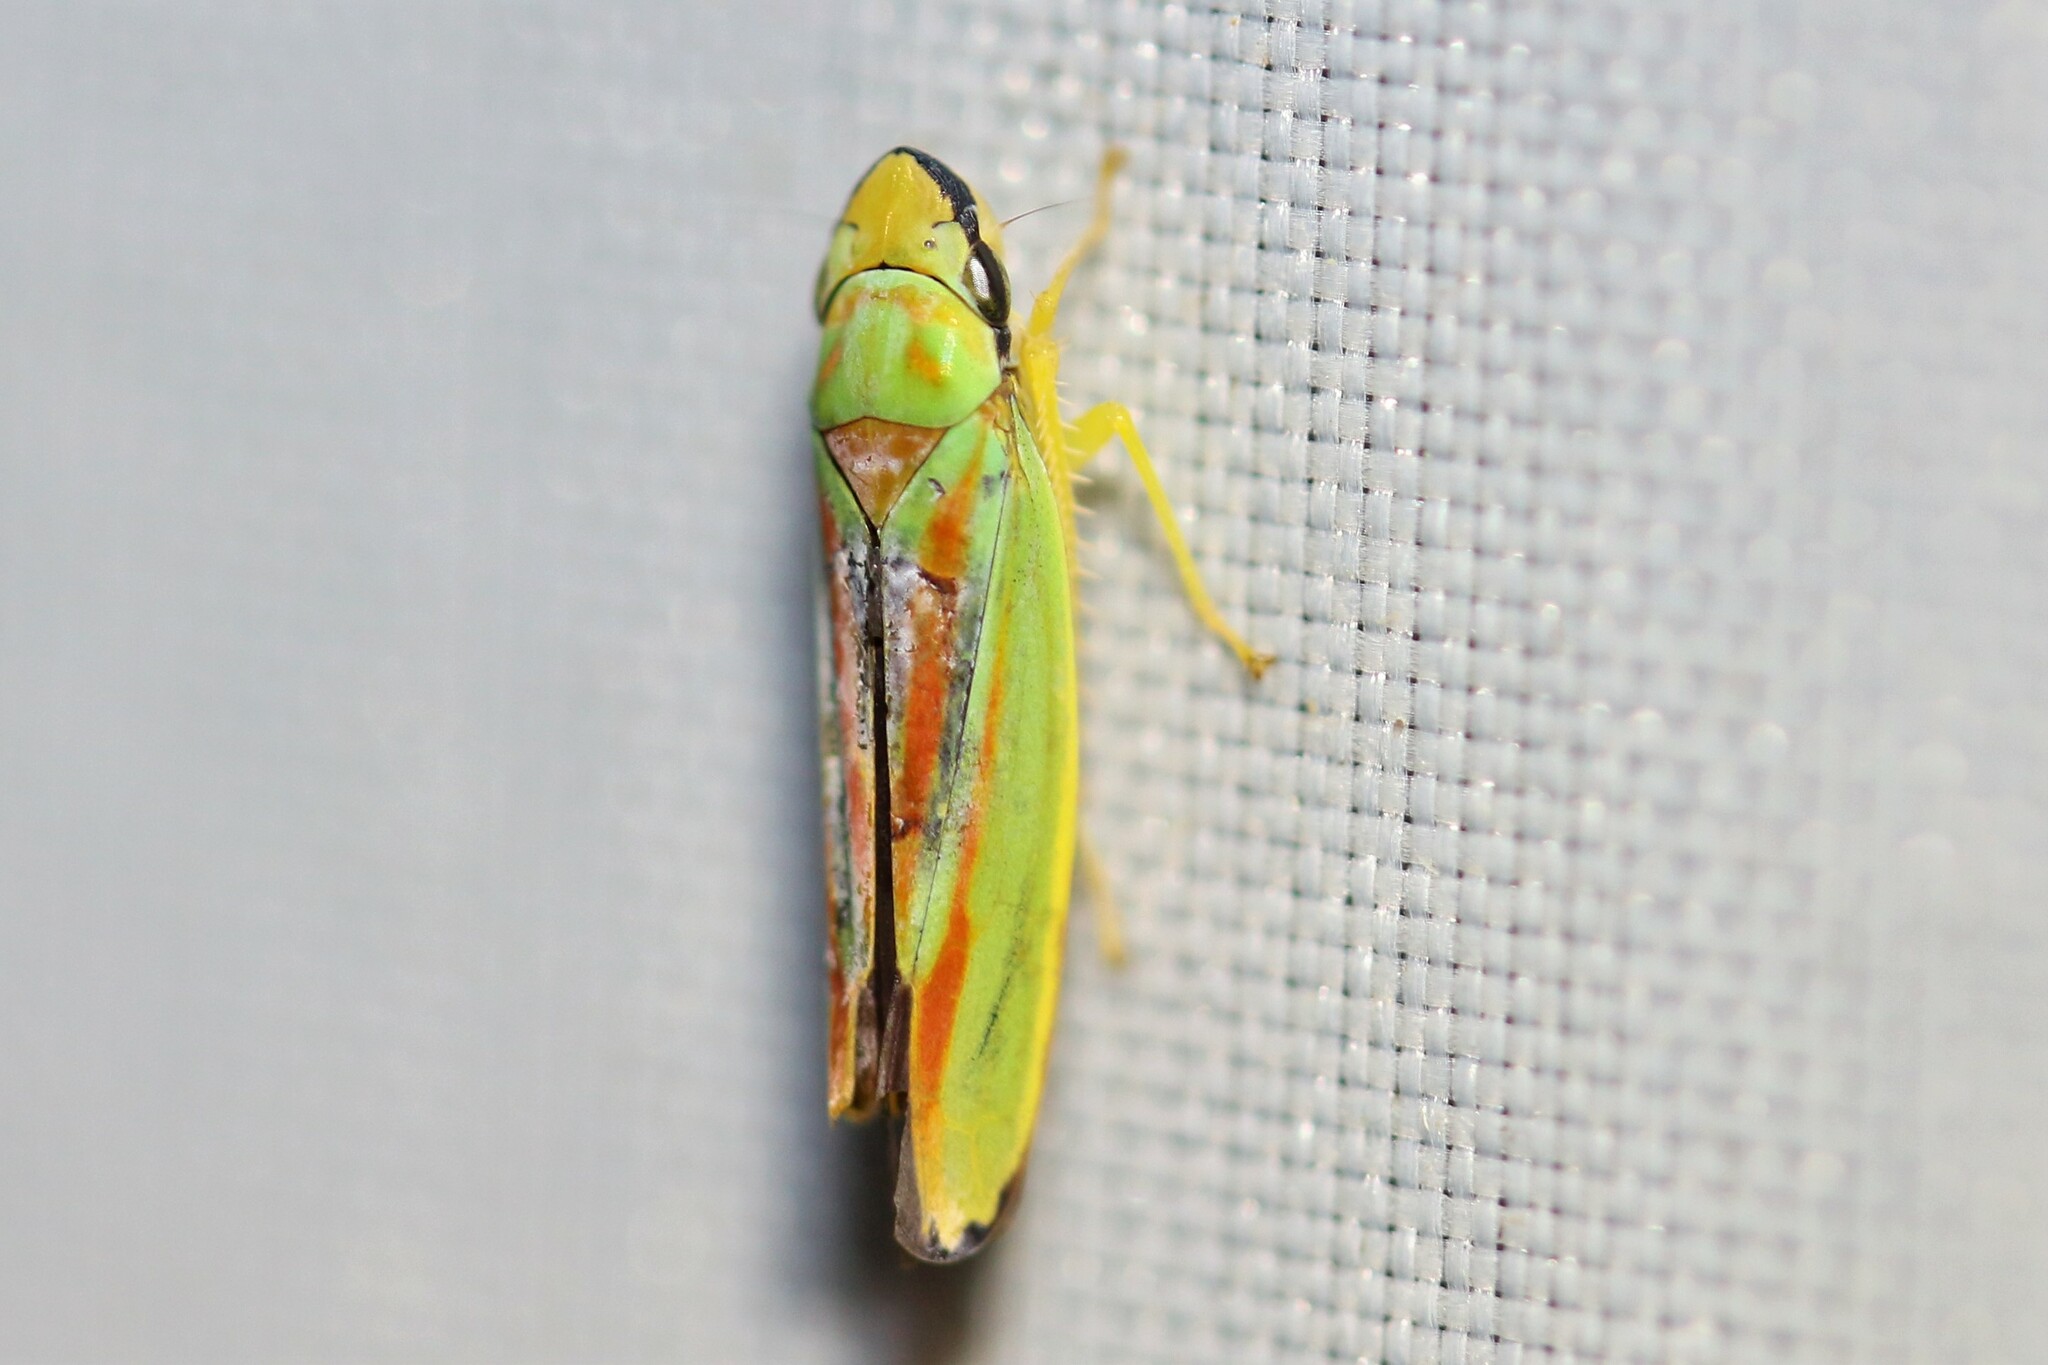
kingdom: Animalia
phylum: Arthropoda
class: Insecta
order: Hemiptera
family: Cicadellidae
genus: Graphocephala
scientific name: Graphocephala fennahi
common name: Rhododendron leafhopper
